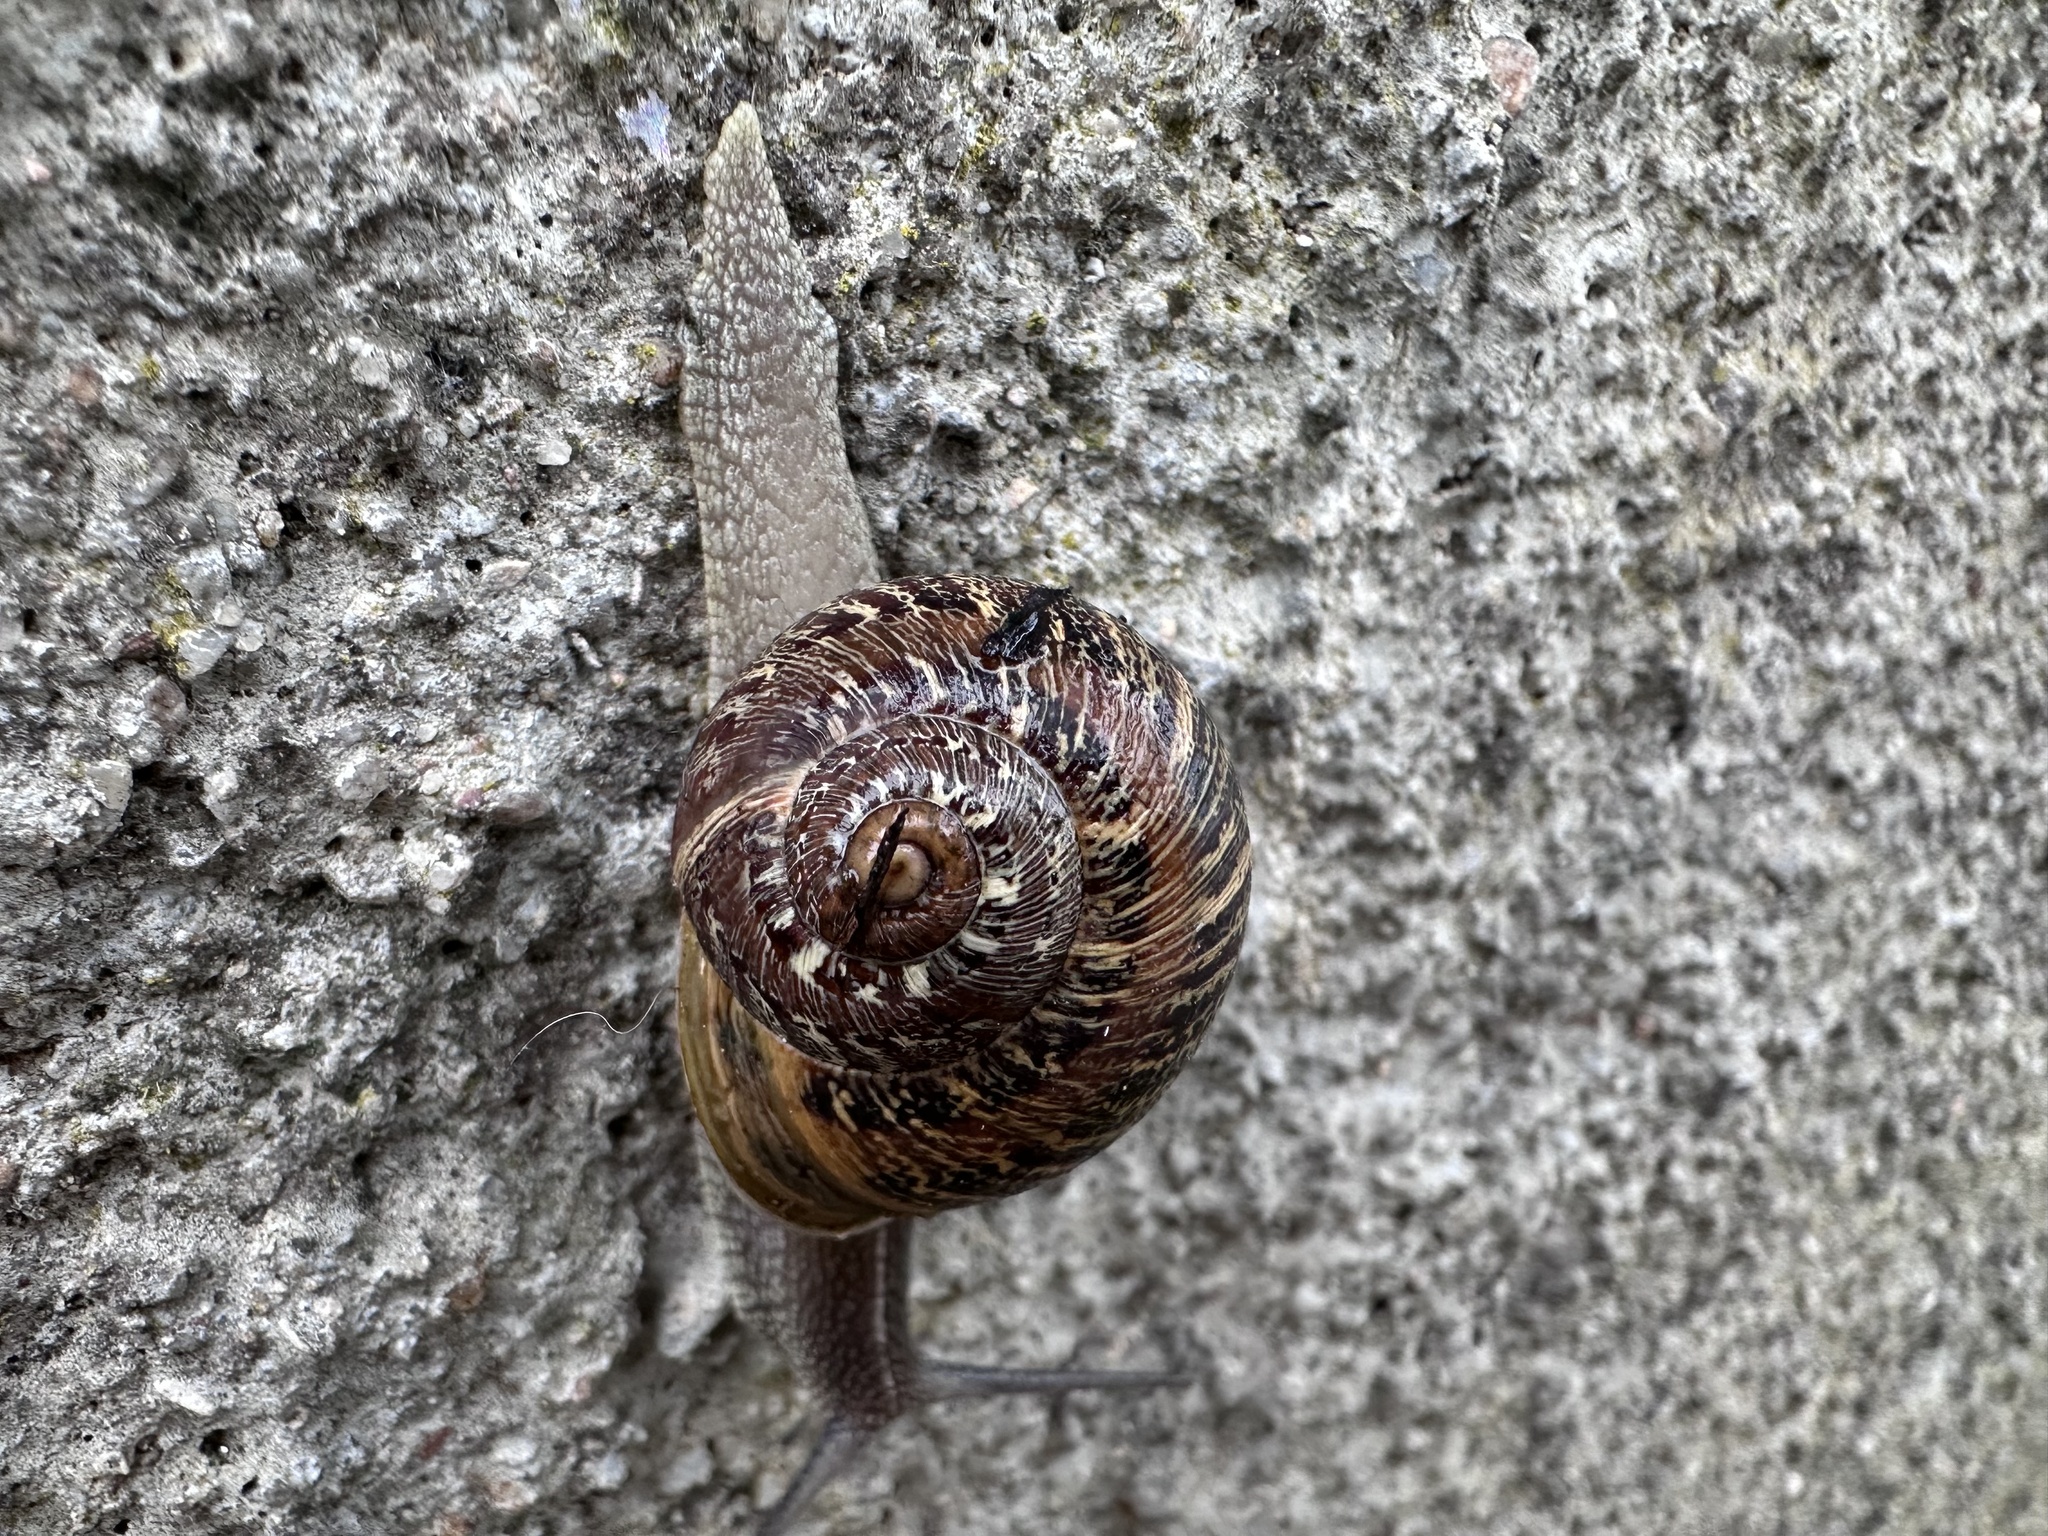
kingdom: Animalia
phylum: Mollusca
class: Gastropoda
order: Stylommatophora
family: Helicidae
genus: Cornu
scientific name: Cornu aspersum
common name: Brown garden snail
